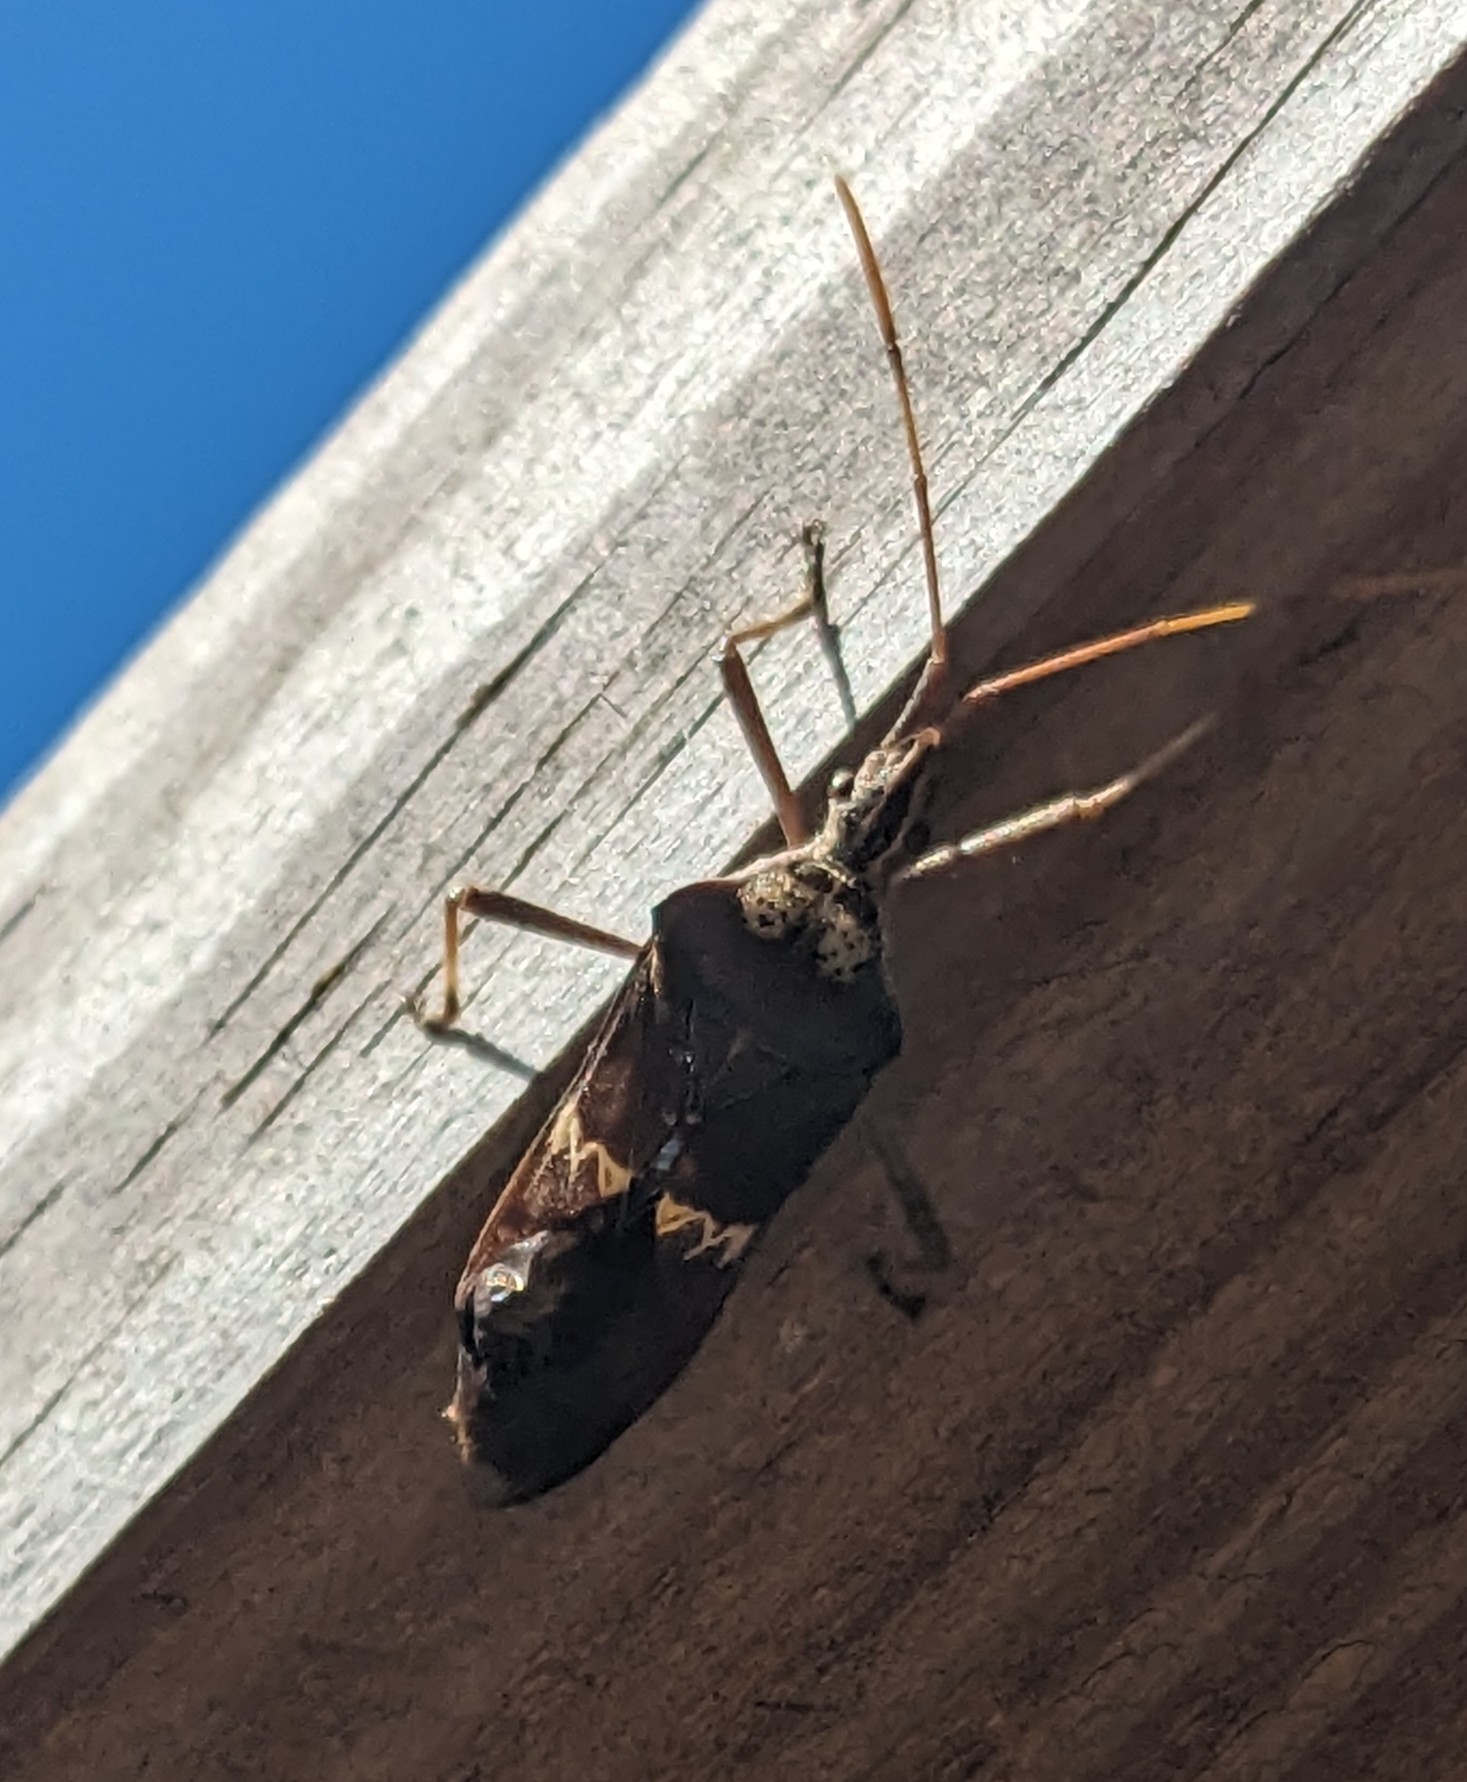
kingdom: Animalia
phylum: Arthropoda
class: Insecta
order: Hemiptera
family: Coreidae
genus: Leptoglossus
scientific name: Leptoglossus zonatus
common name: Large-legged bug
